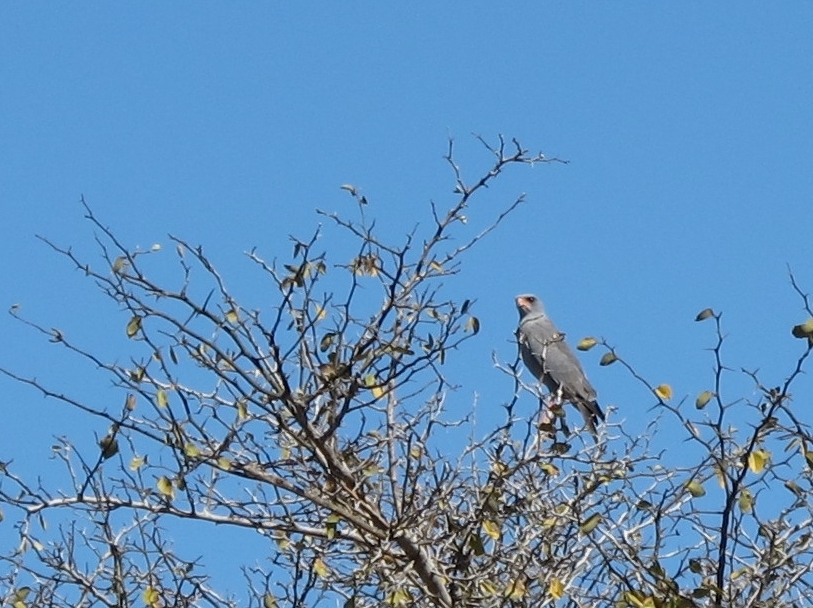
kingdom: Animalia
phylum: Chordata
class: Aves
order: Accipitriformes
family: Accipitridae
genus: Melierax
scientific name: Melierax metabates
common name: Dark chanting-goshawk
